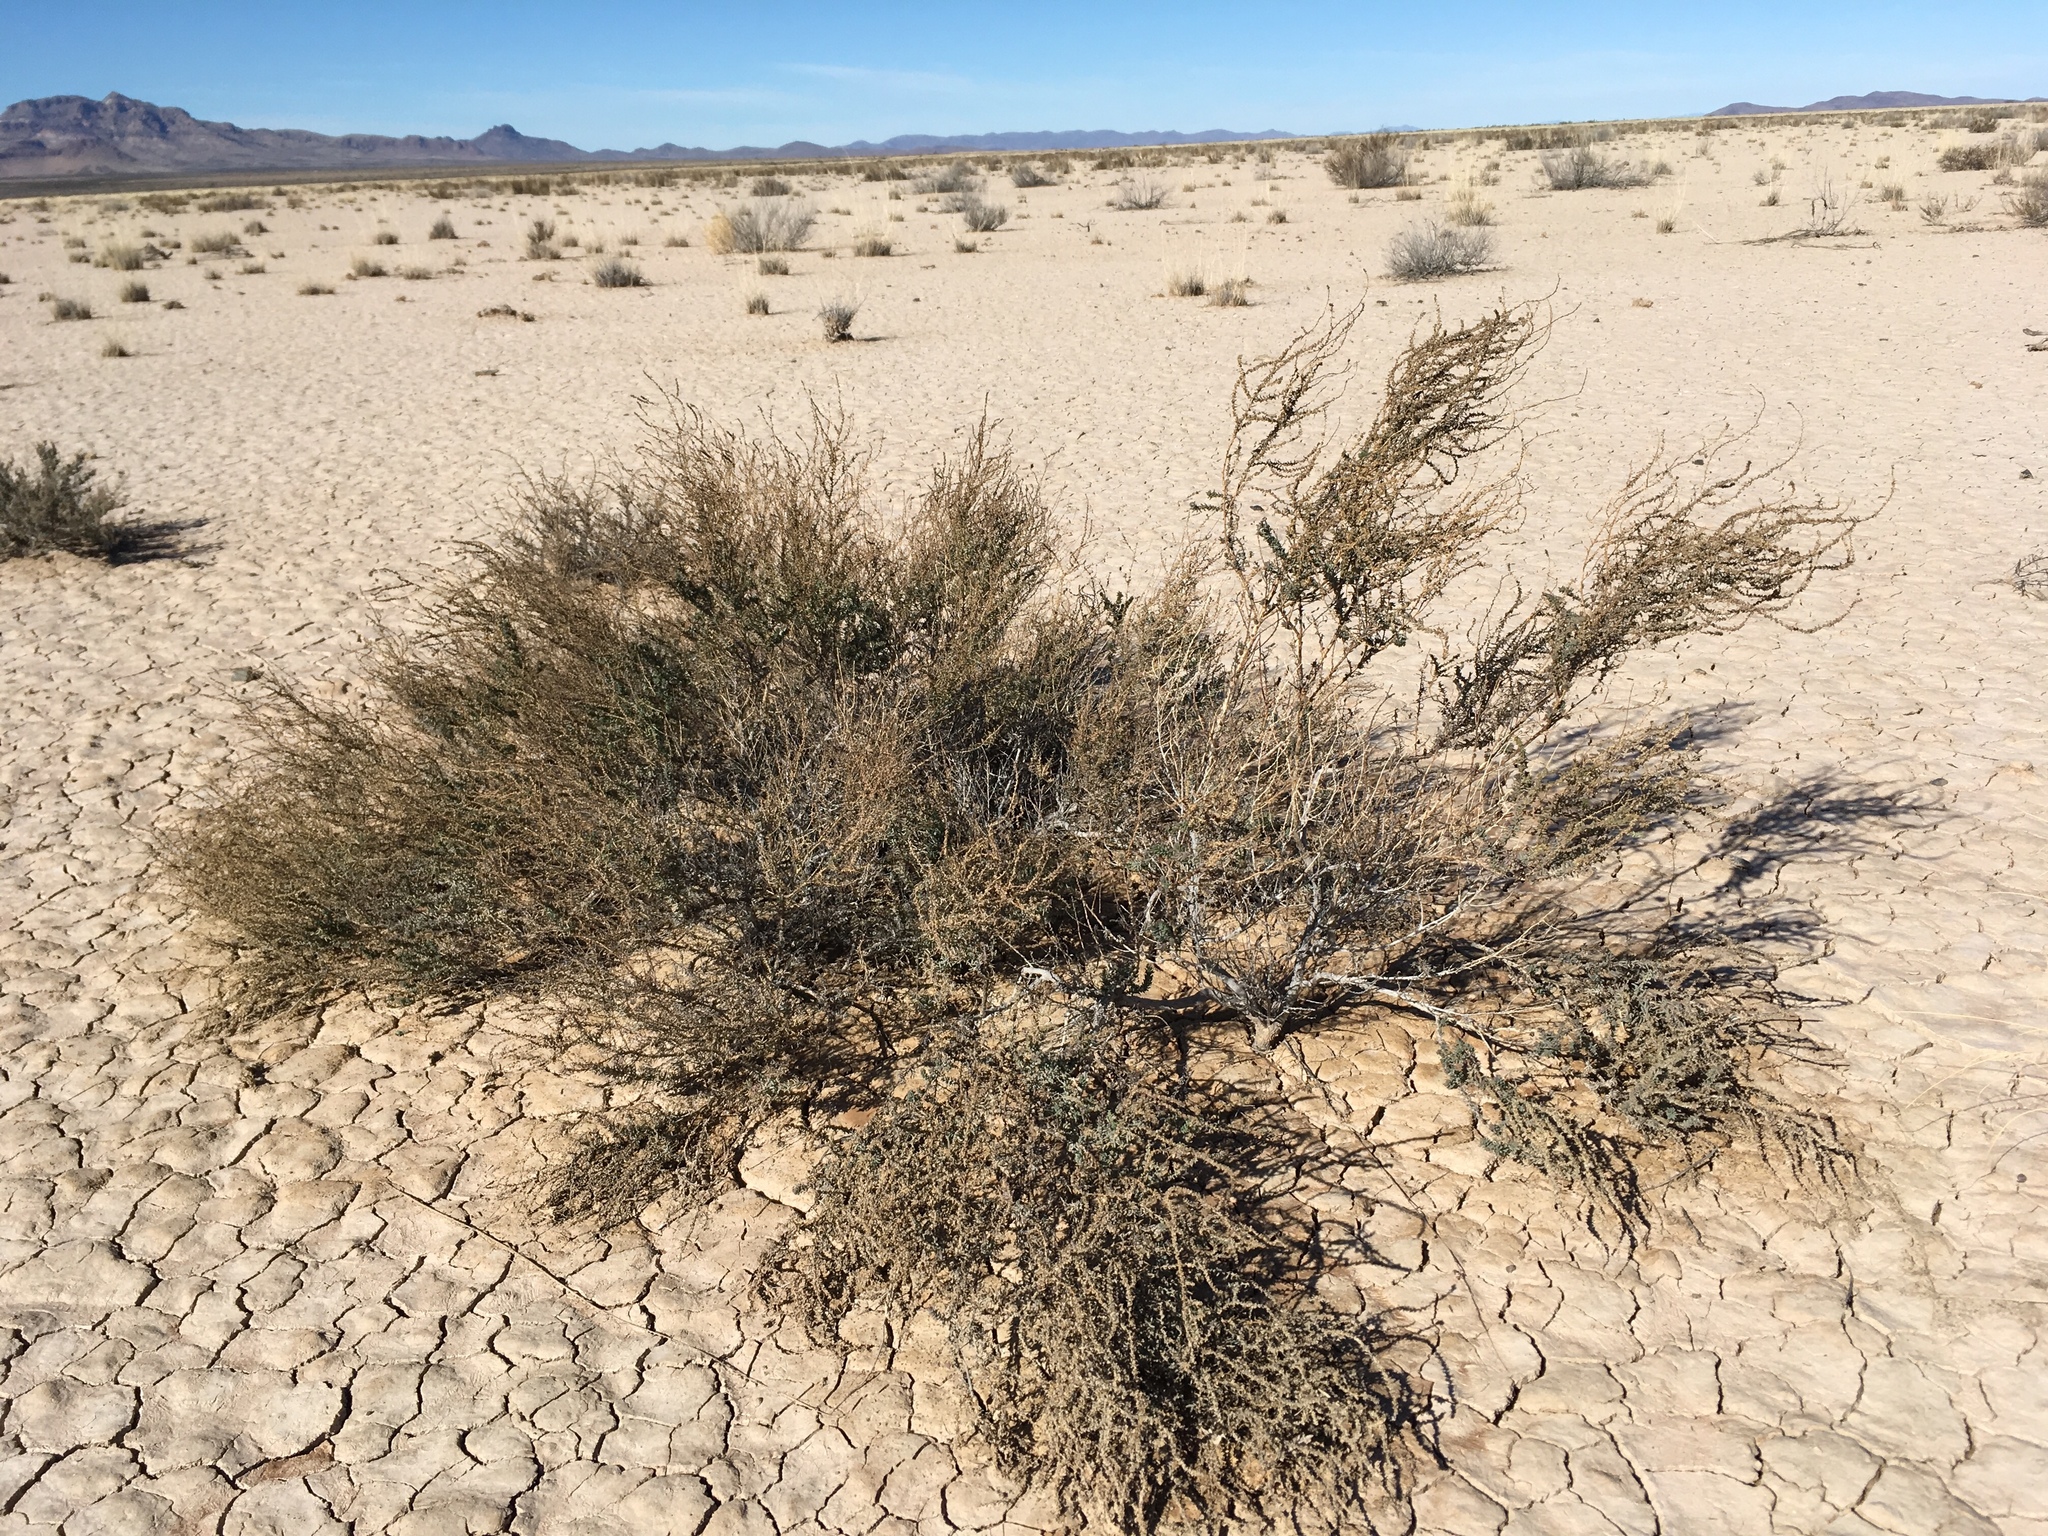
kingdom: Plantae
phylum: Tracheophyta
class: Magnoliopsida
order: Caryophyllales
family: Amaranthaceae
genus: Suaeda
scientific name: Suaeda nigra
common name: Bush seepweed
